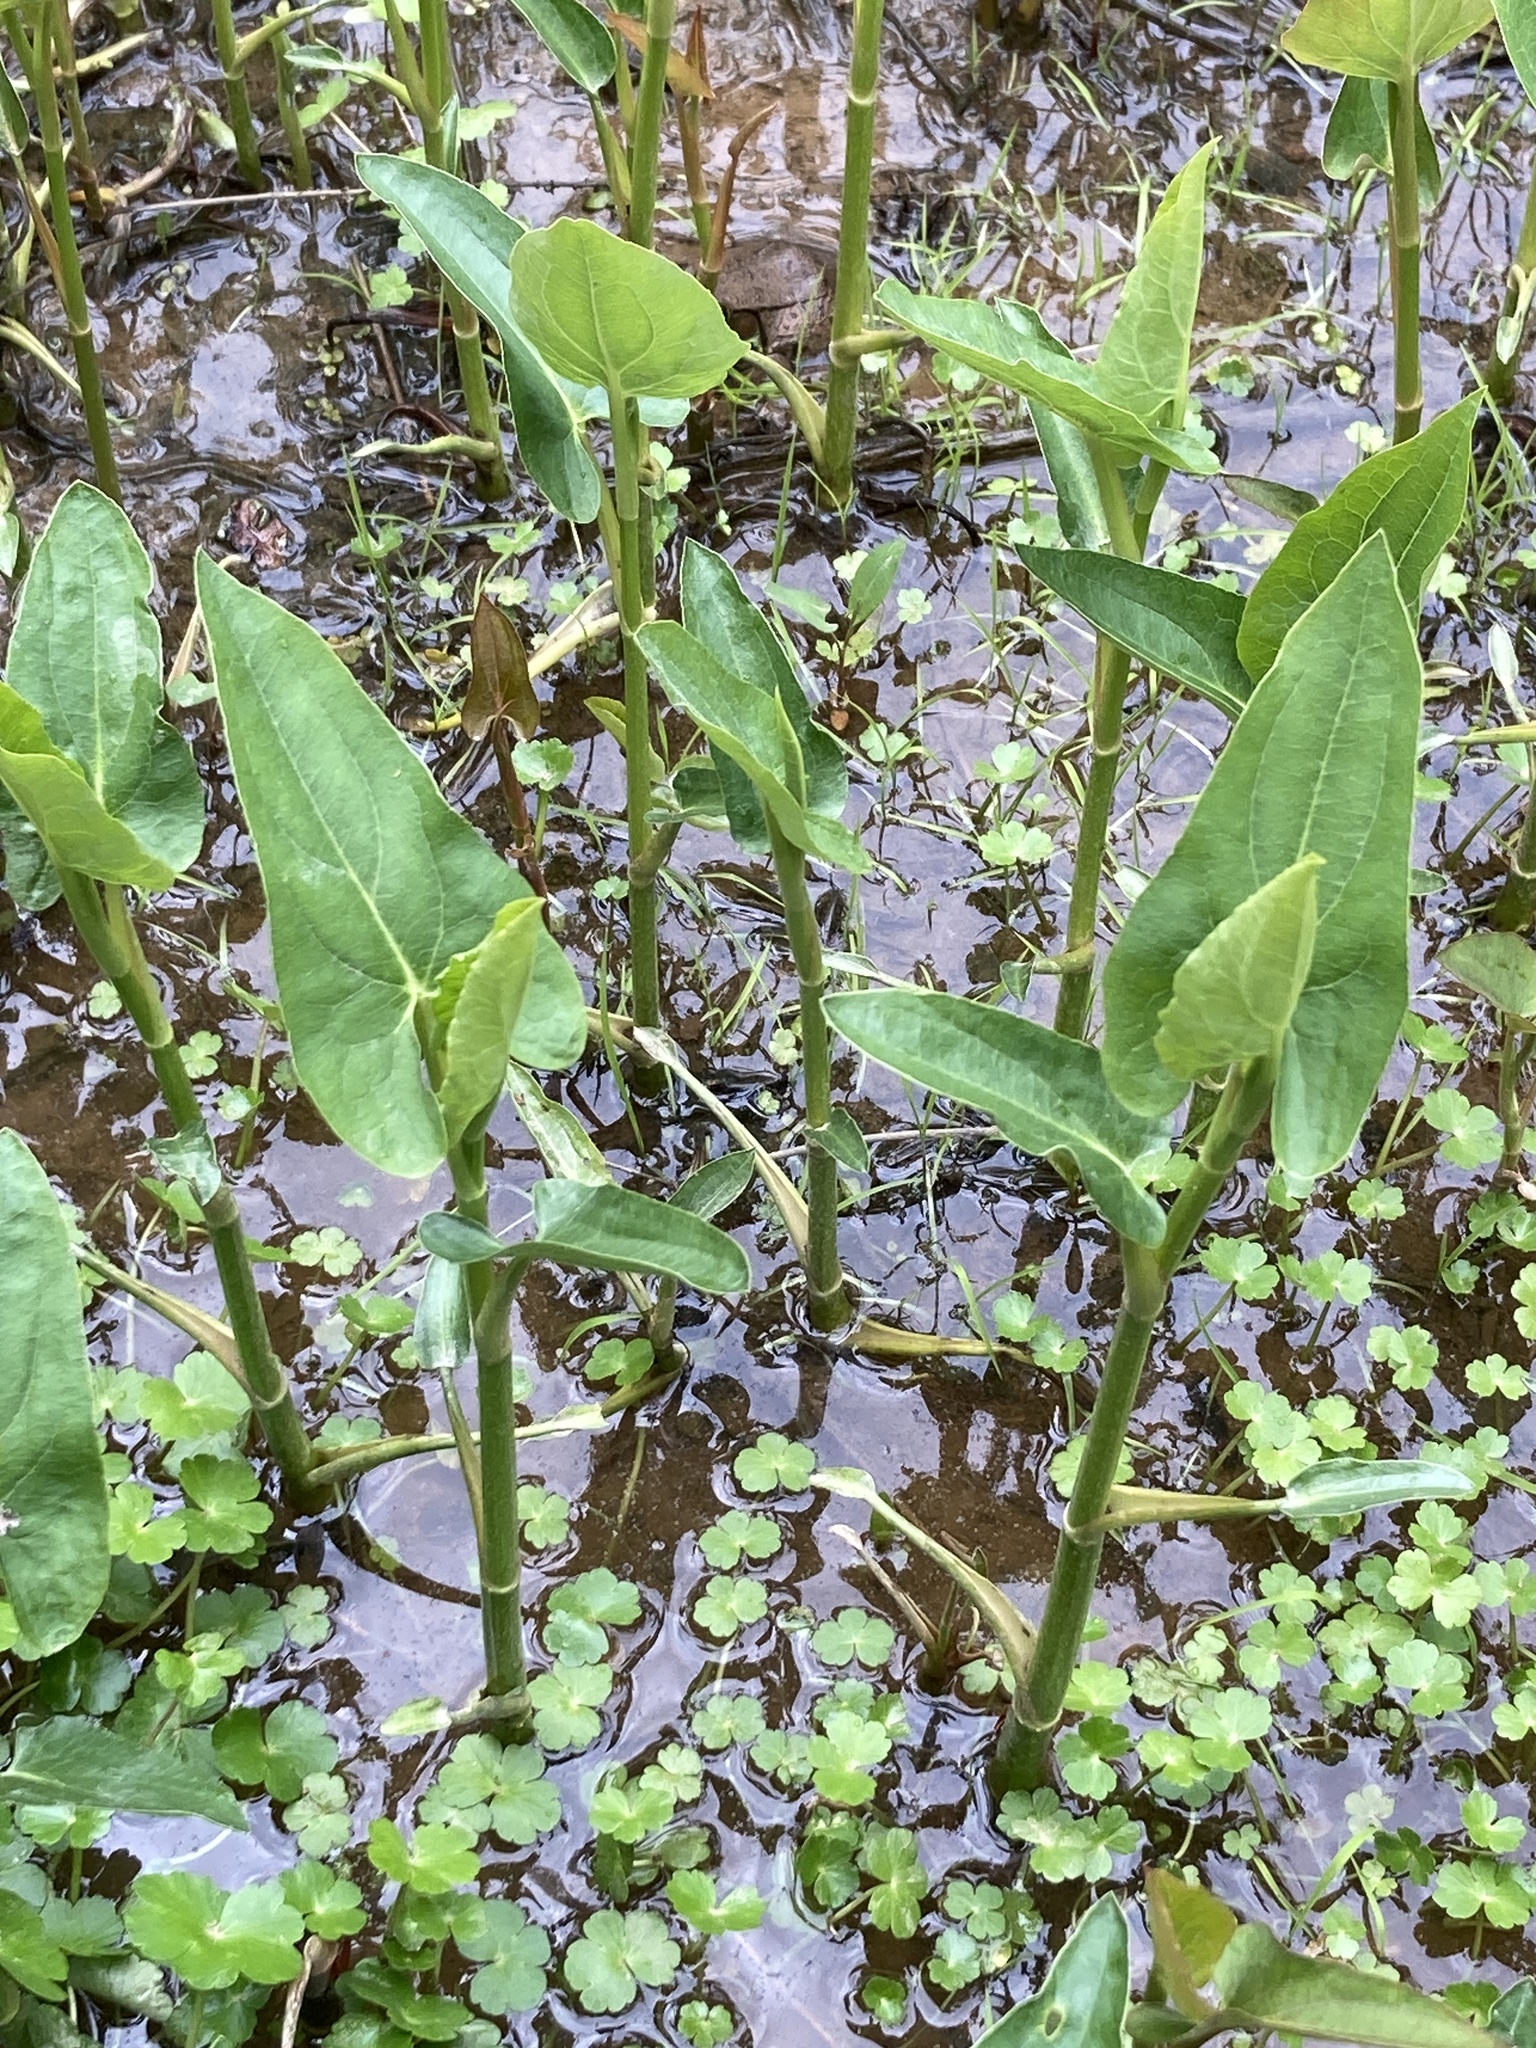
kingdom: Plantae
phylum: Tracheophyta
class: Magnoliopsida
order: Piperales
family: Saururaceae
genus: Saururus
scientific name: Saururus cernuus
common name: Lizard's-tail
